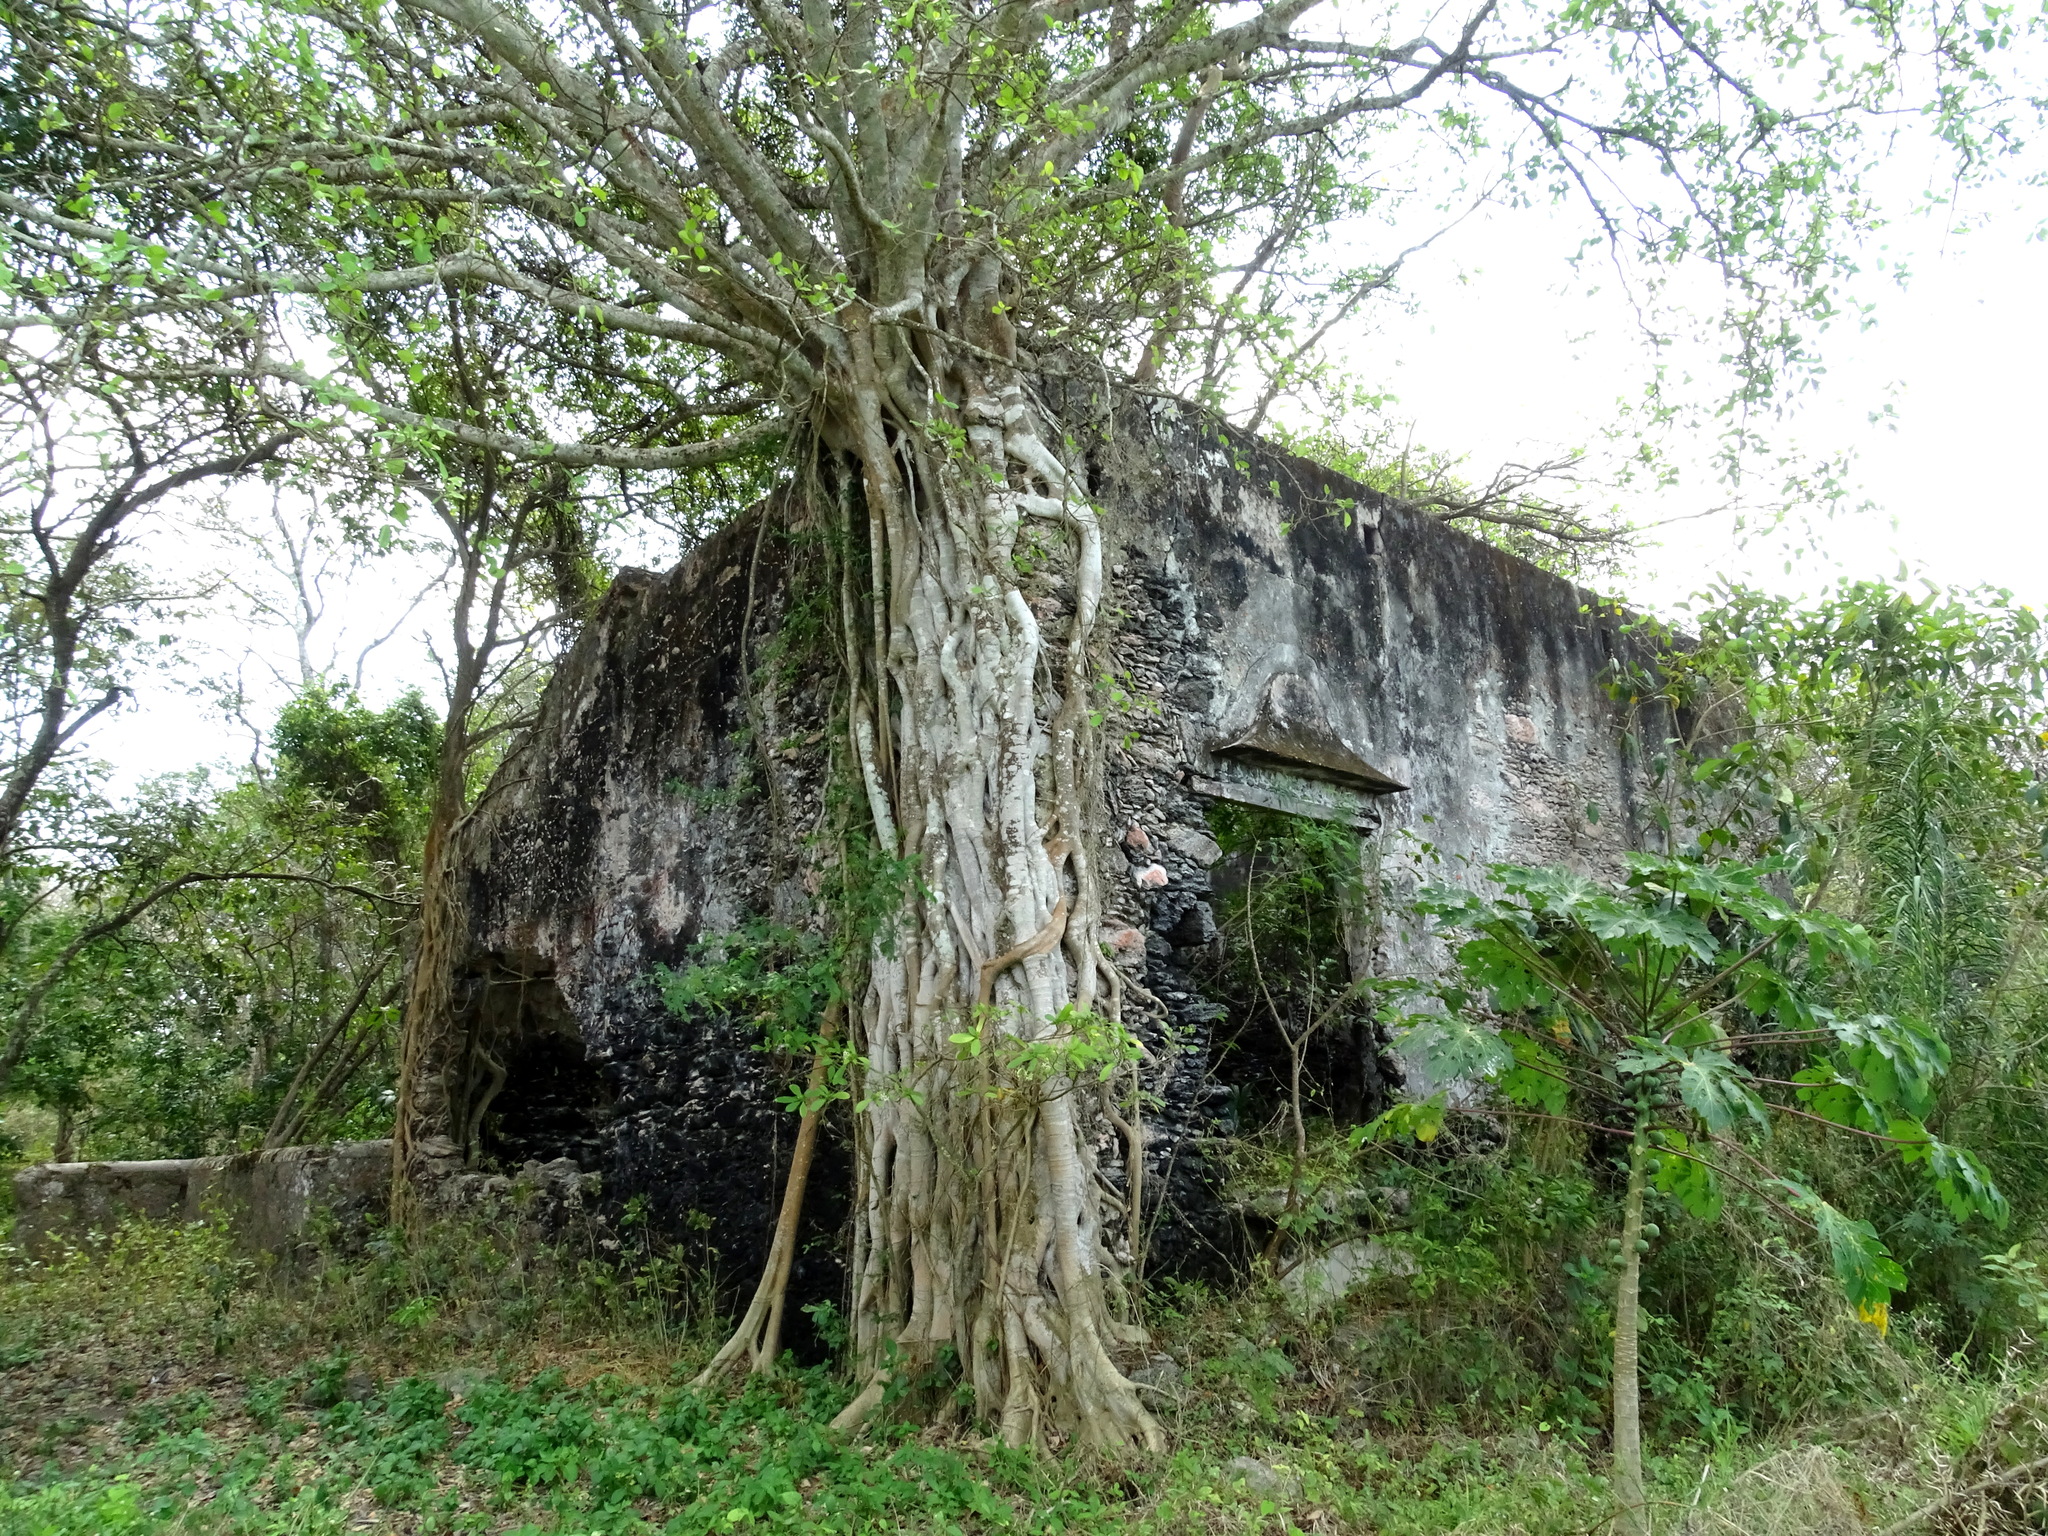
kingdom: Plantae
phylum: Tracheophyta
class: Magnoliopsida
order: Rosales
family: Moraceae
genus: Ficus
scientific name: Ficus crassinervia
